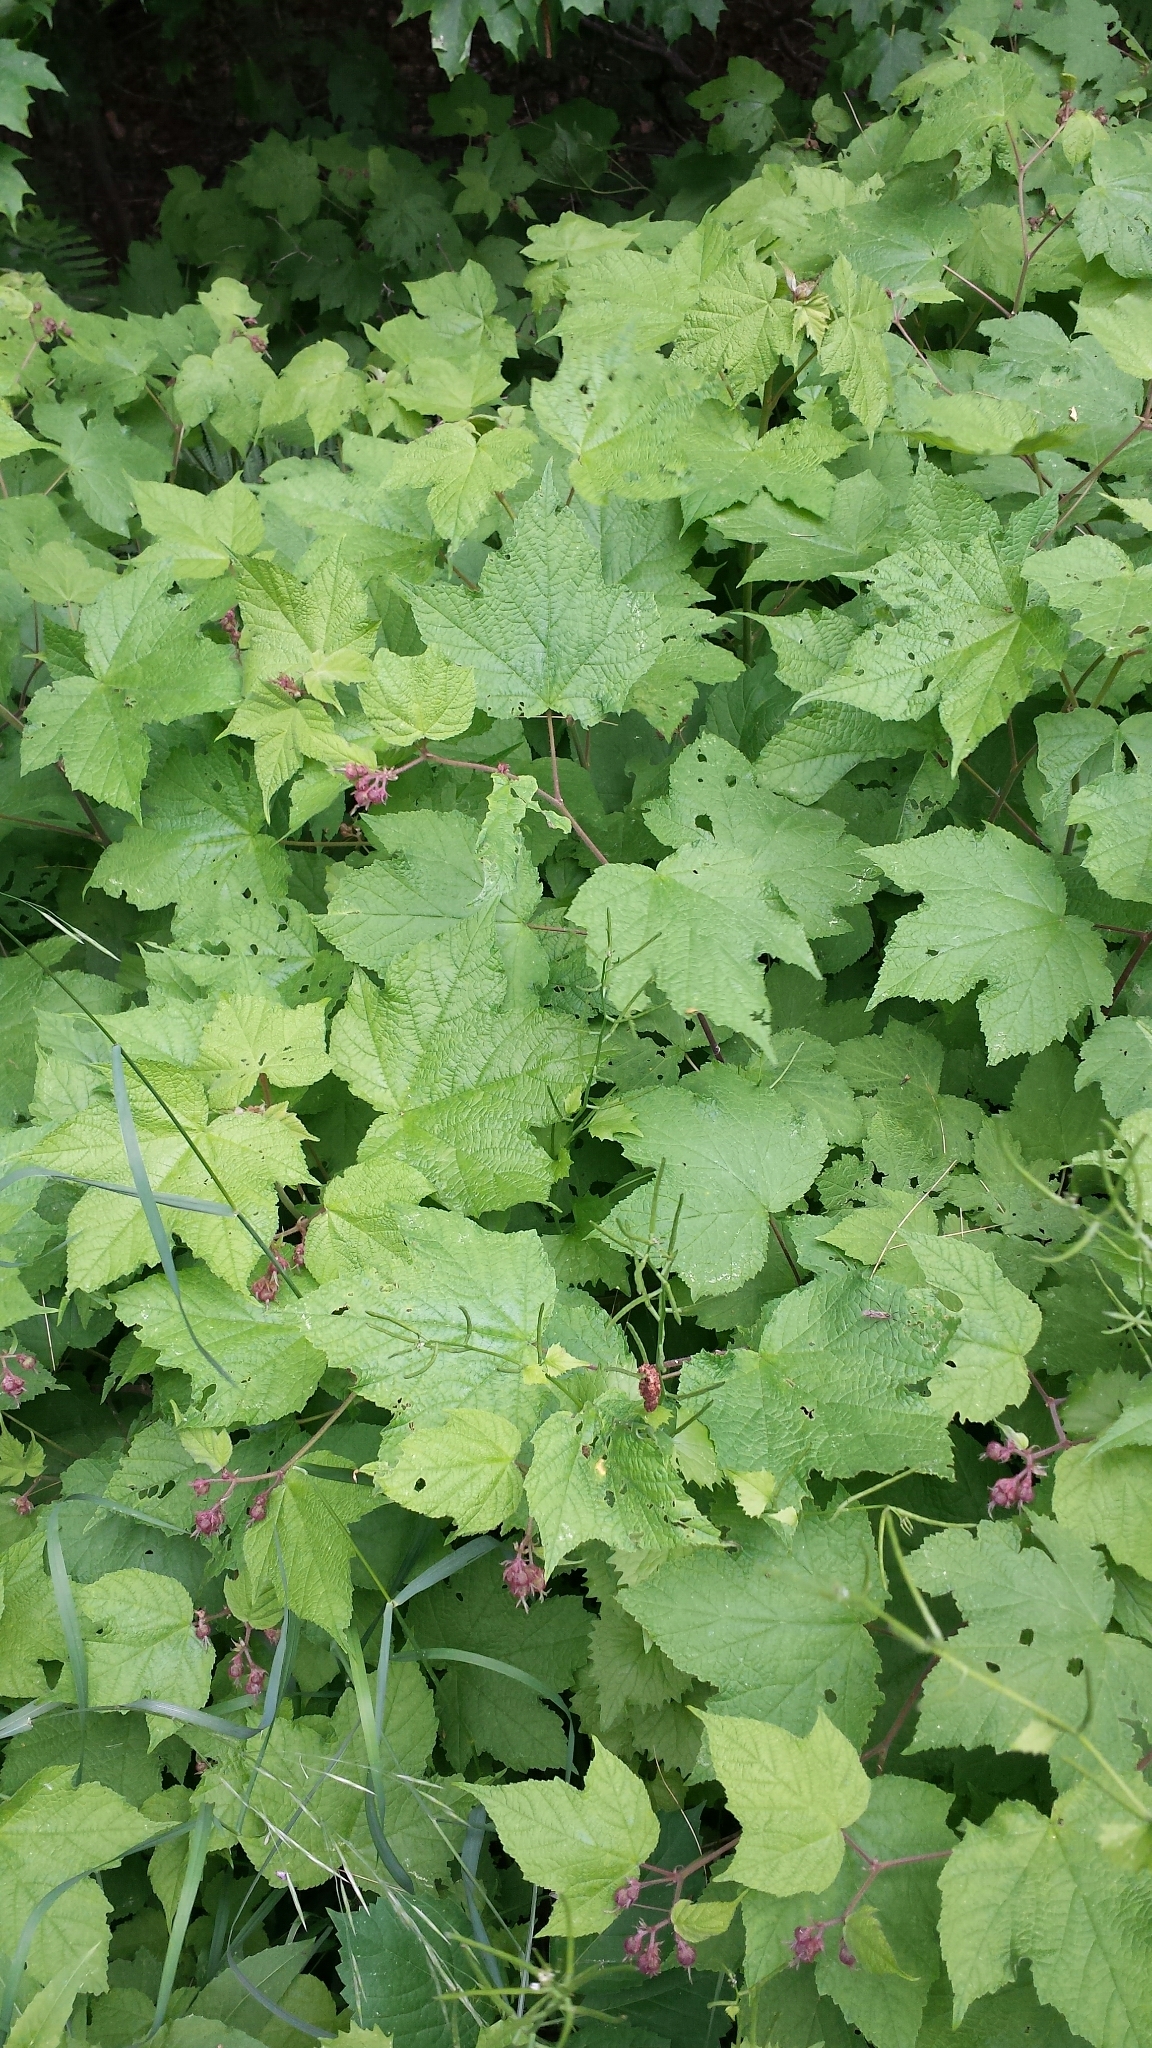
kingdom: Plantae
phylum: Tracheophyta
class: Magnoliopsida
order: Rosales
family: Rosaceae
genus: Rubus
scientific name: Rubus odoratus
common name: Purple-flowered raspberry
